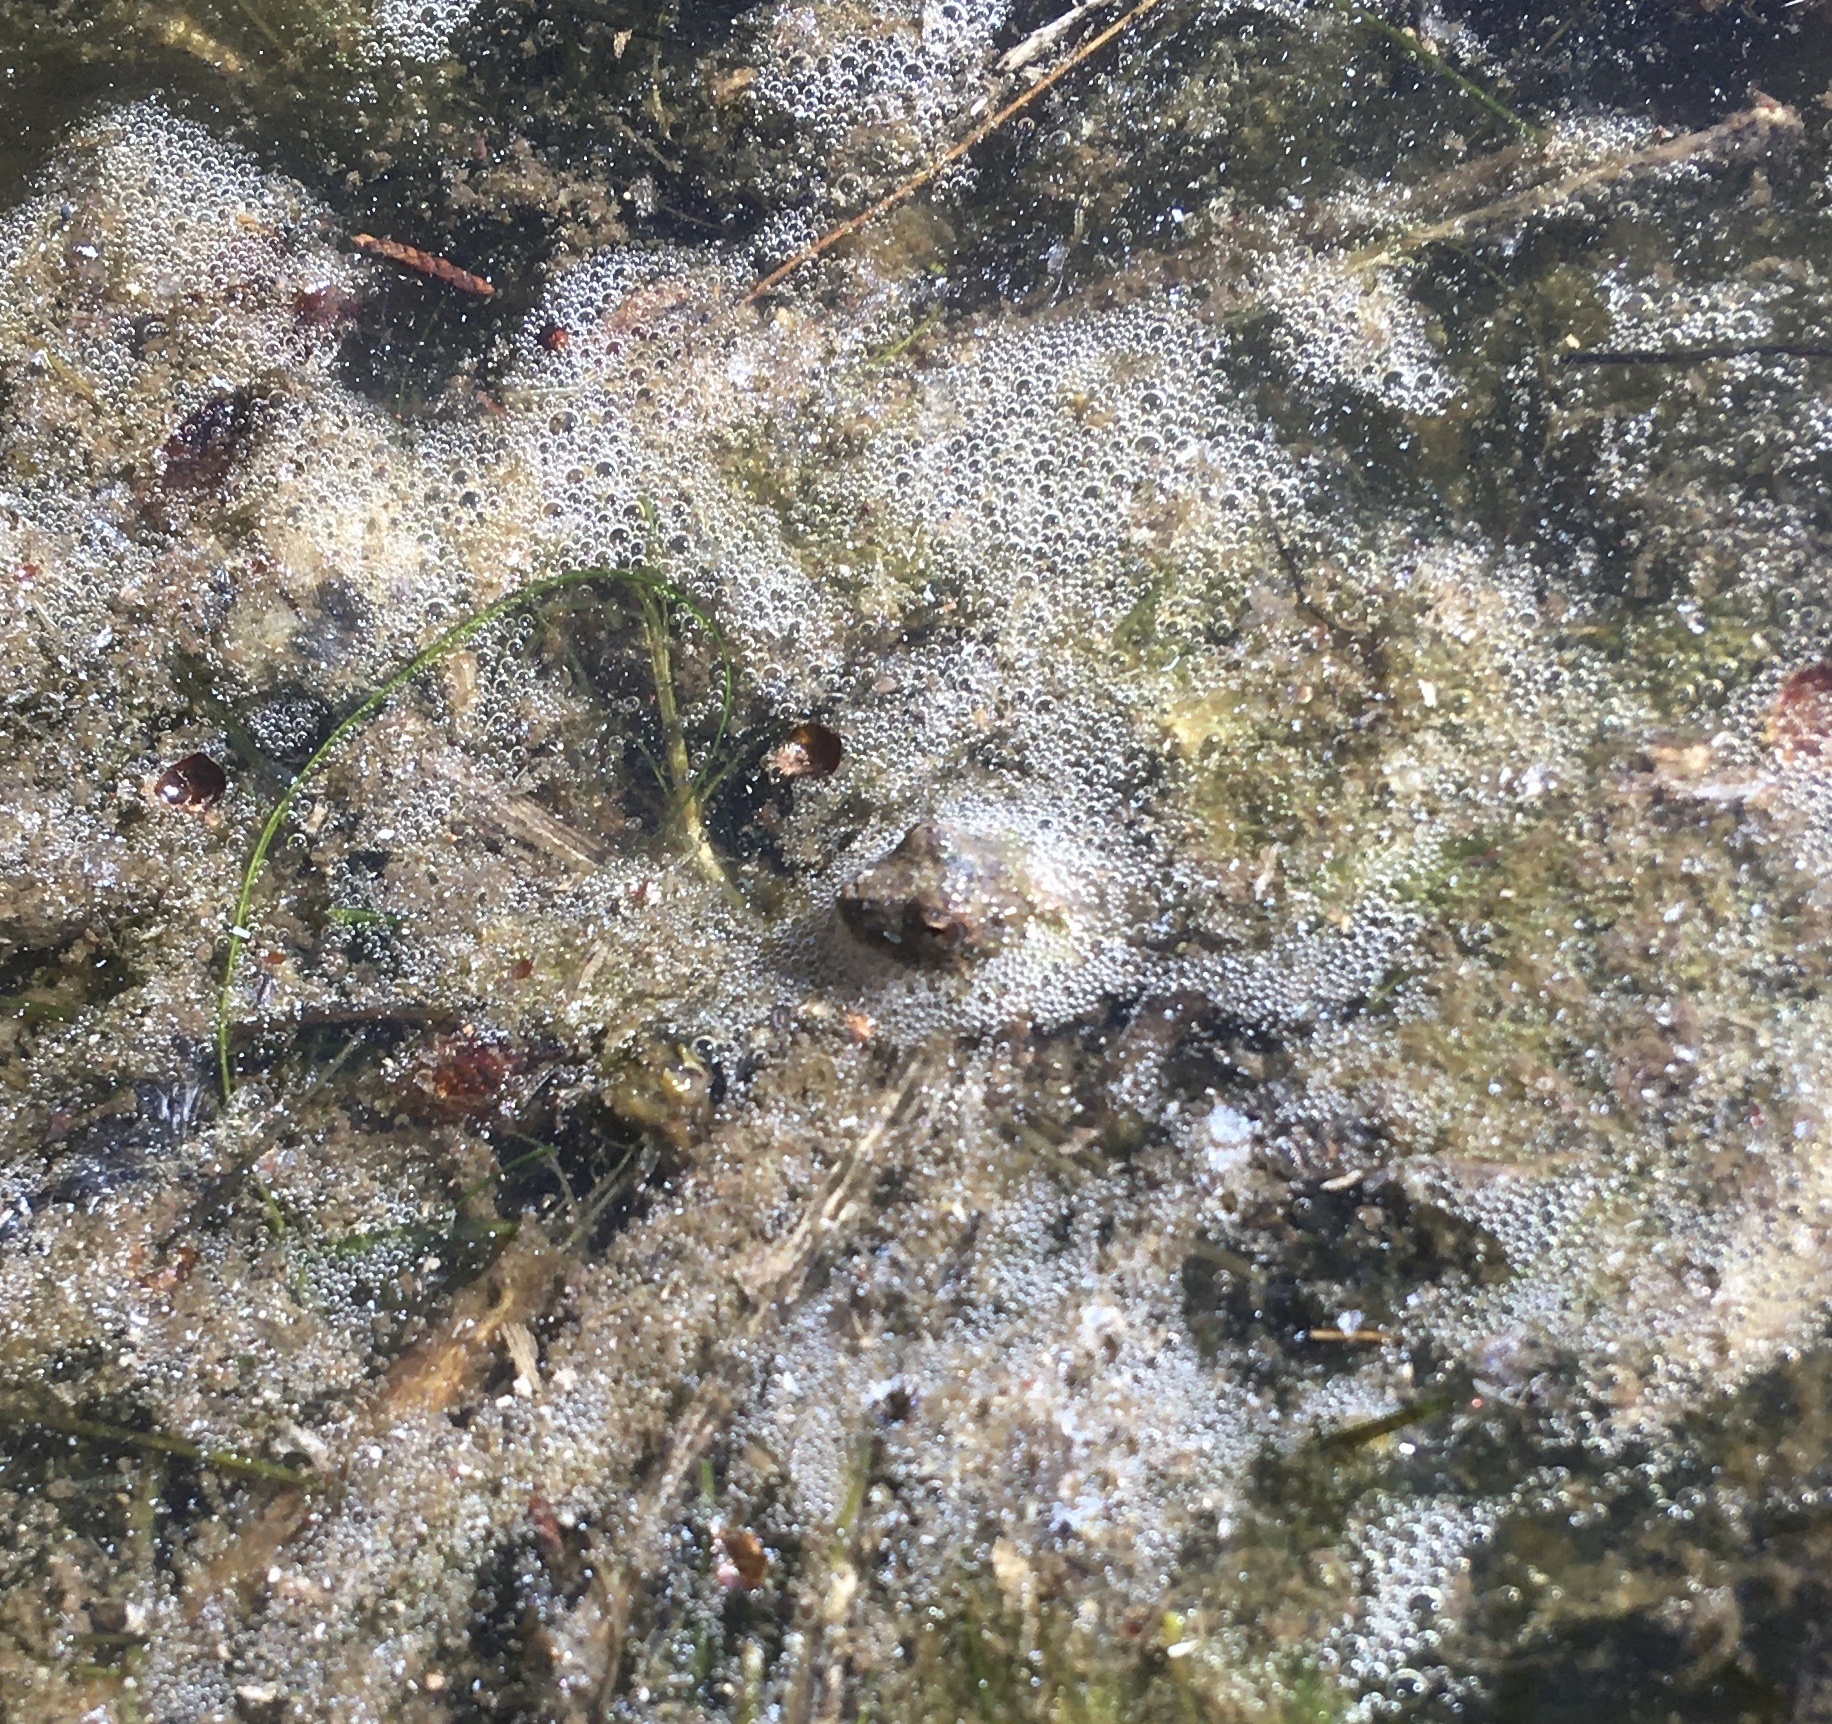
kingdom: Animalia
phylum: Chordata
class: Amphibia
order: Anura
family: Hylidae
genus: Acris
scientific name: Acris blanchardi
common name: Blanchard's cricket frog
